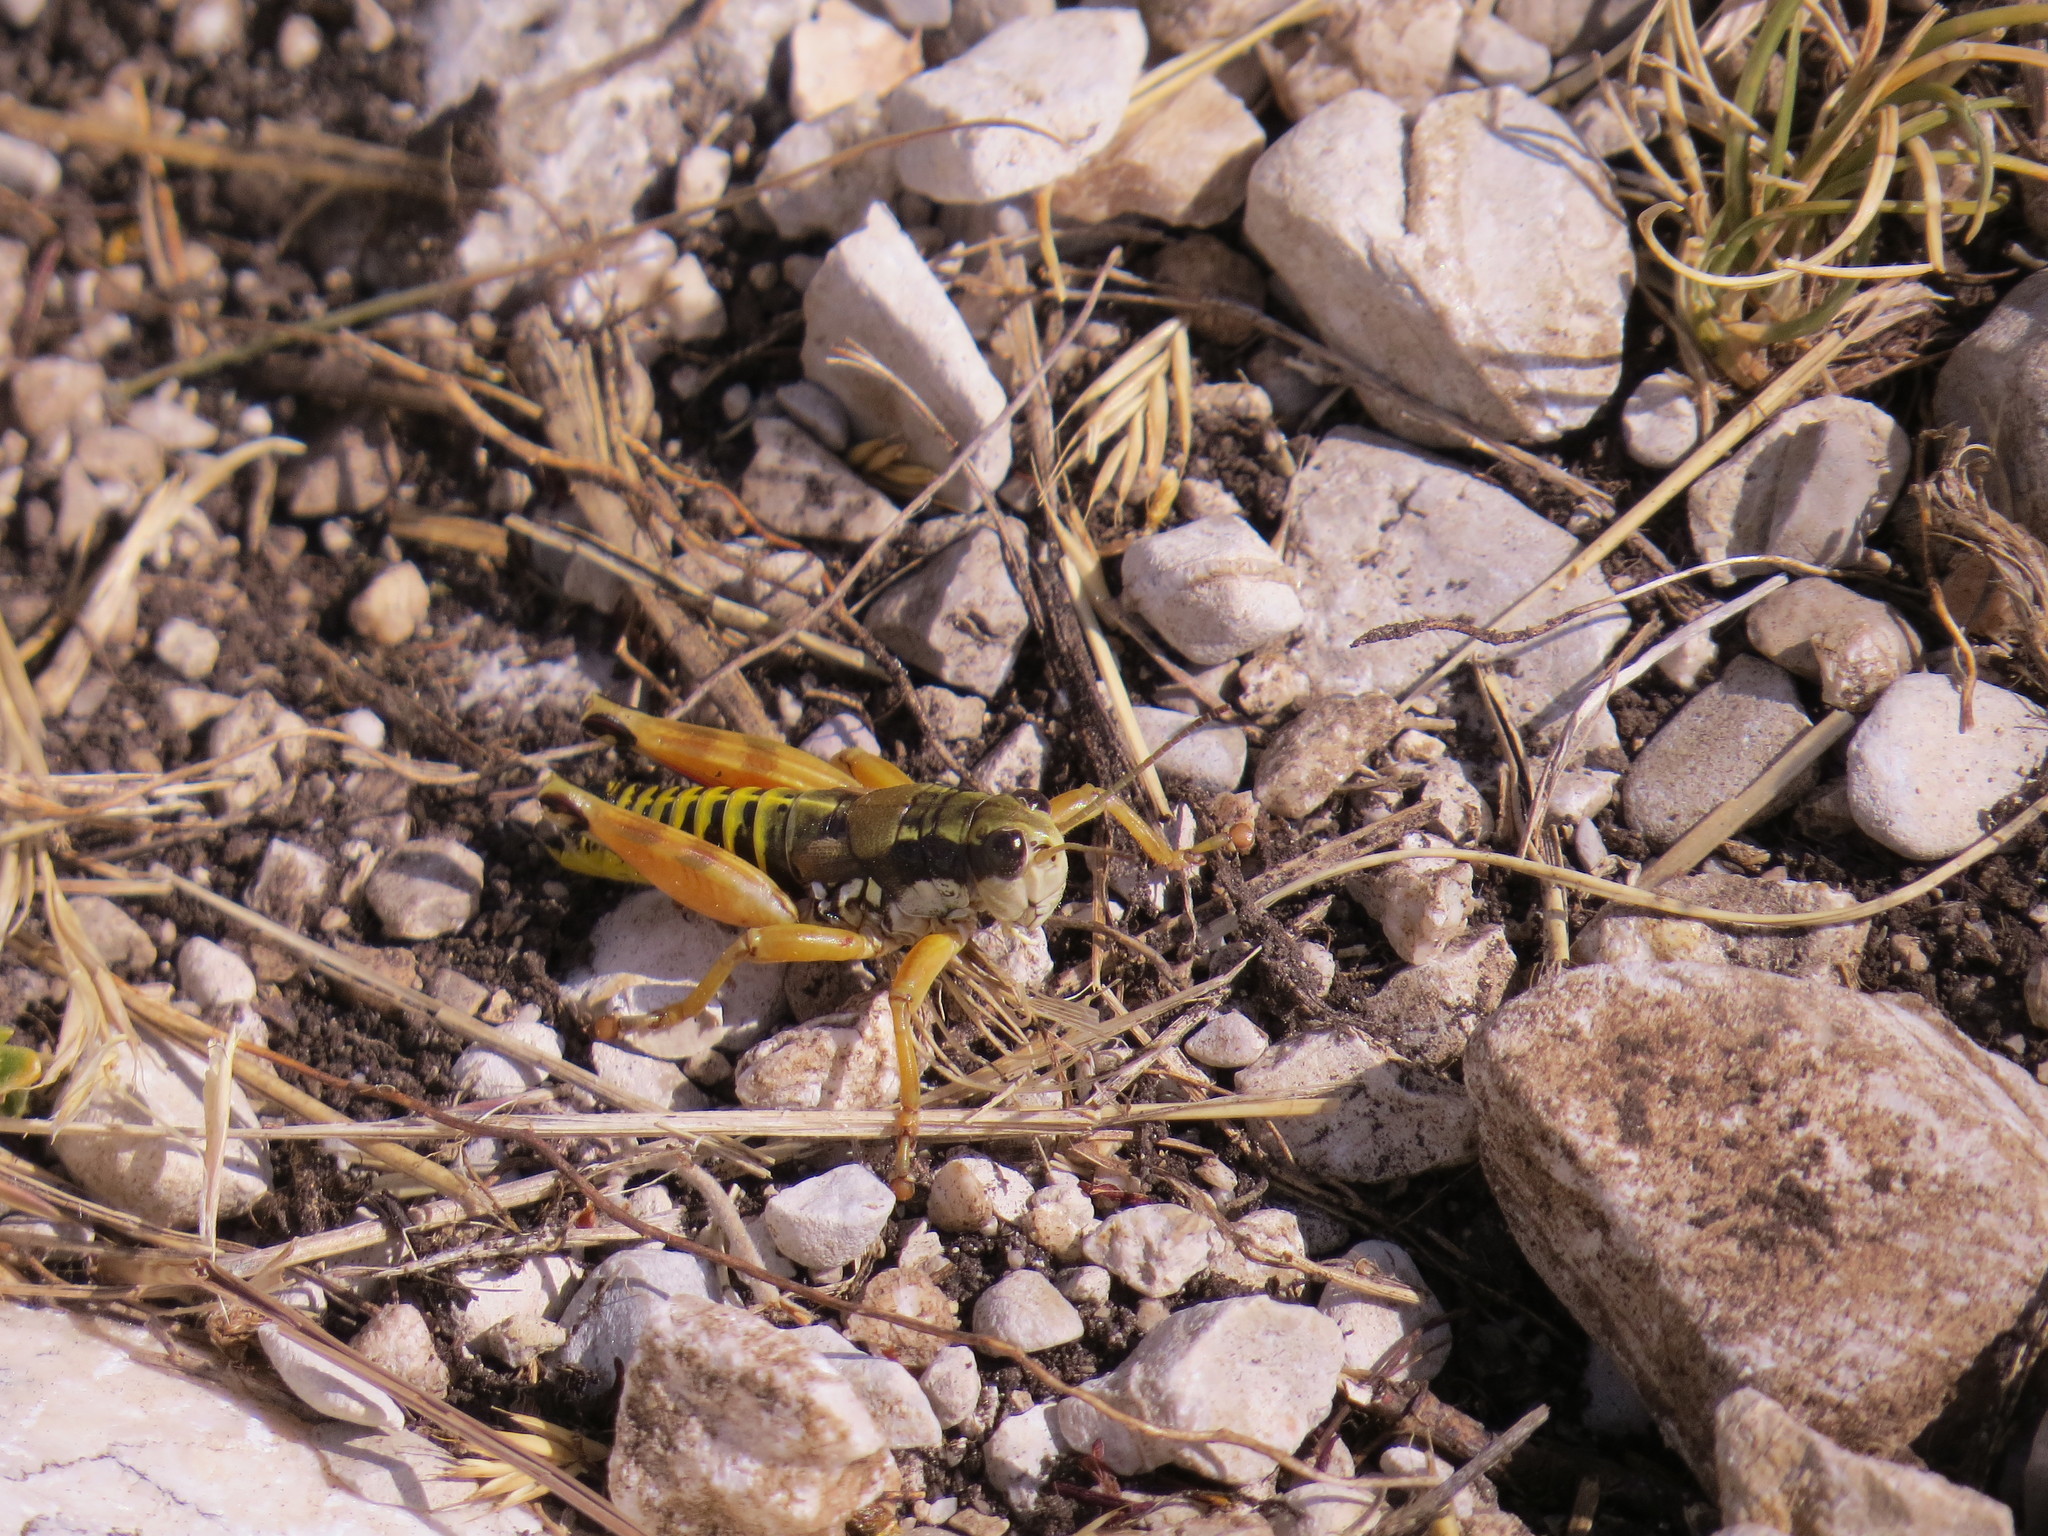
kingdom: Animalia
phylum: Arthropoda
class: Insecta
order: Orthoptera
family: Acrididae
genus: Podisma
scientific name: Podisma amedegnatoae
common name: Ventoux mountain grasshopper
